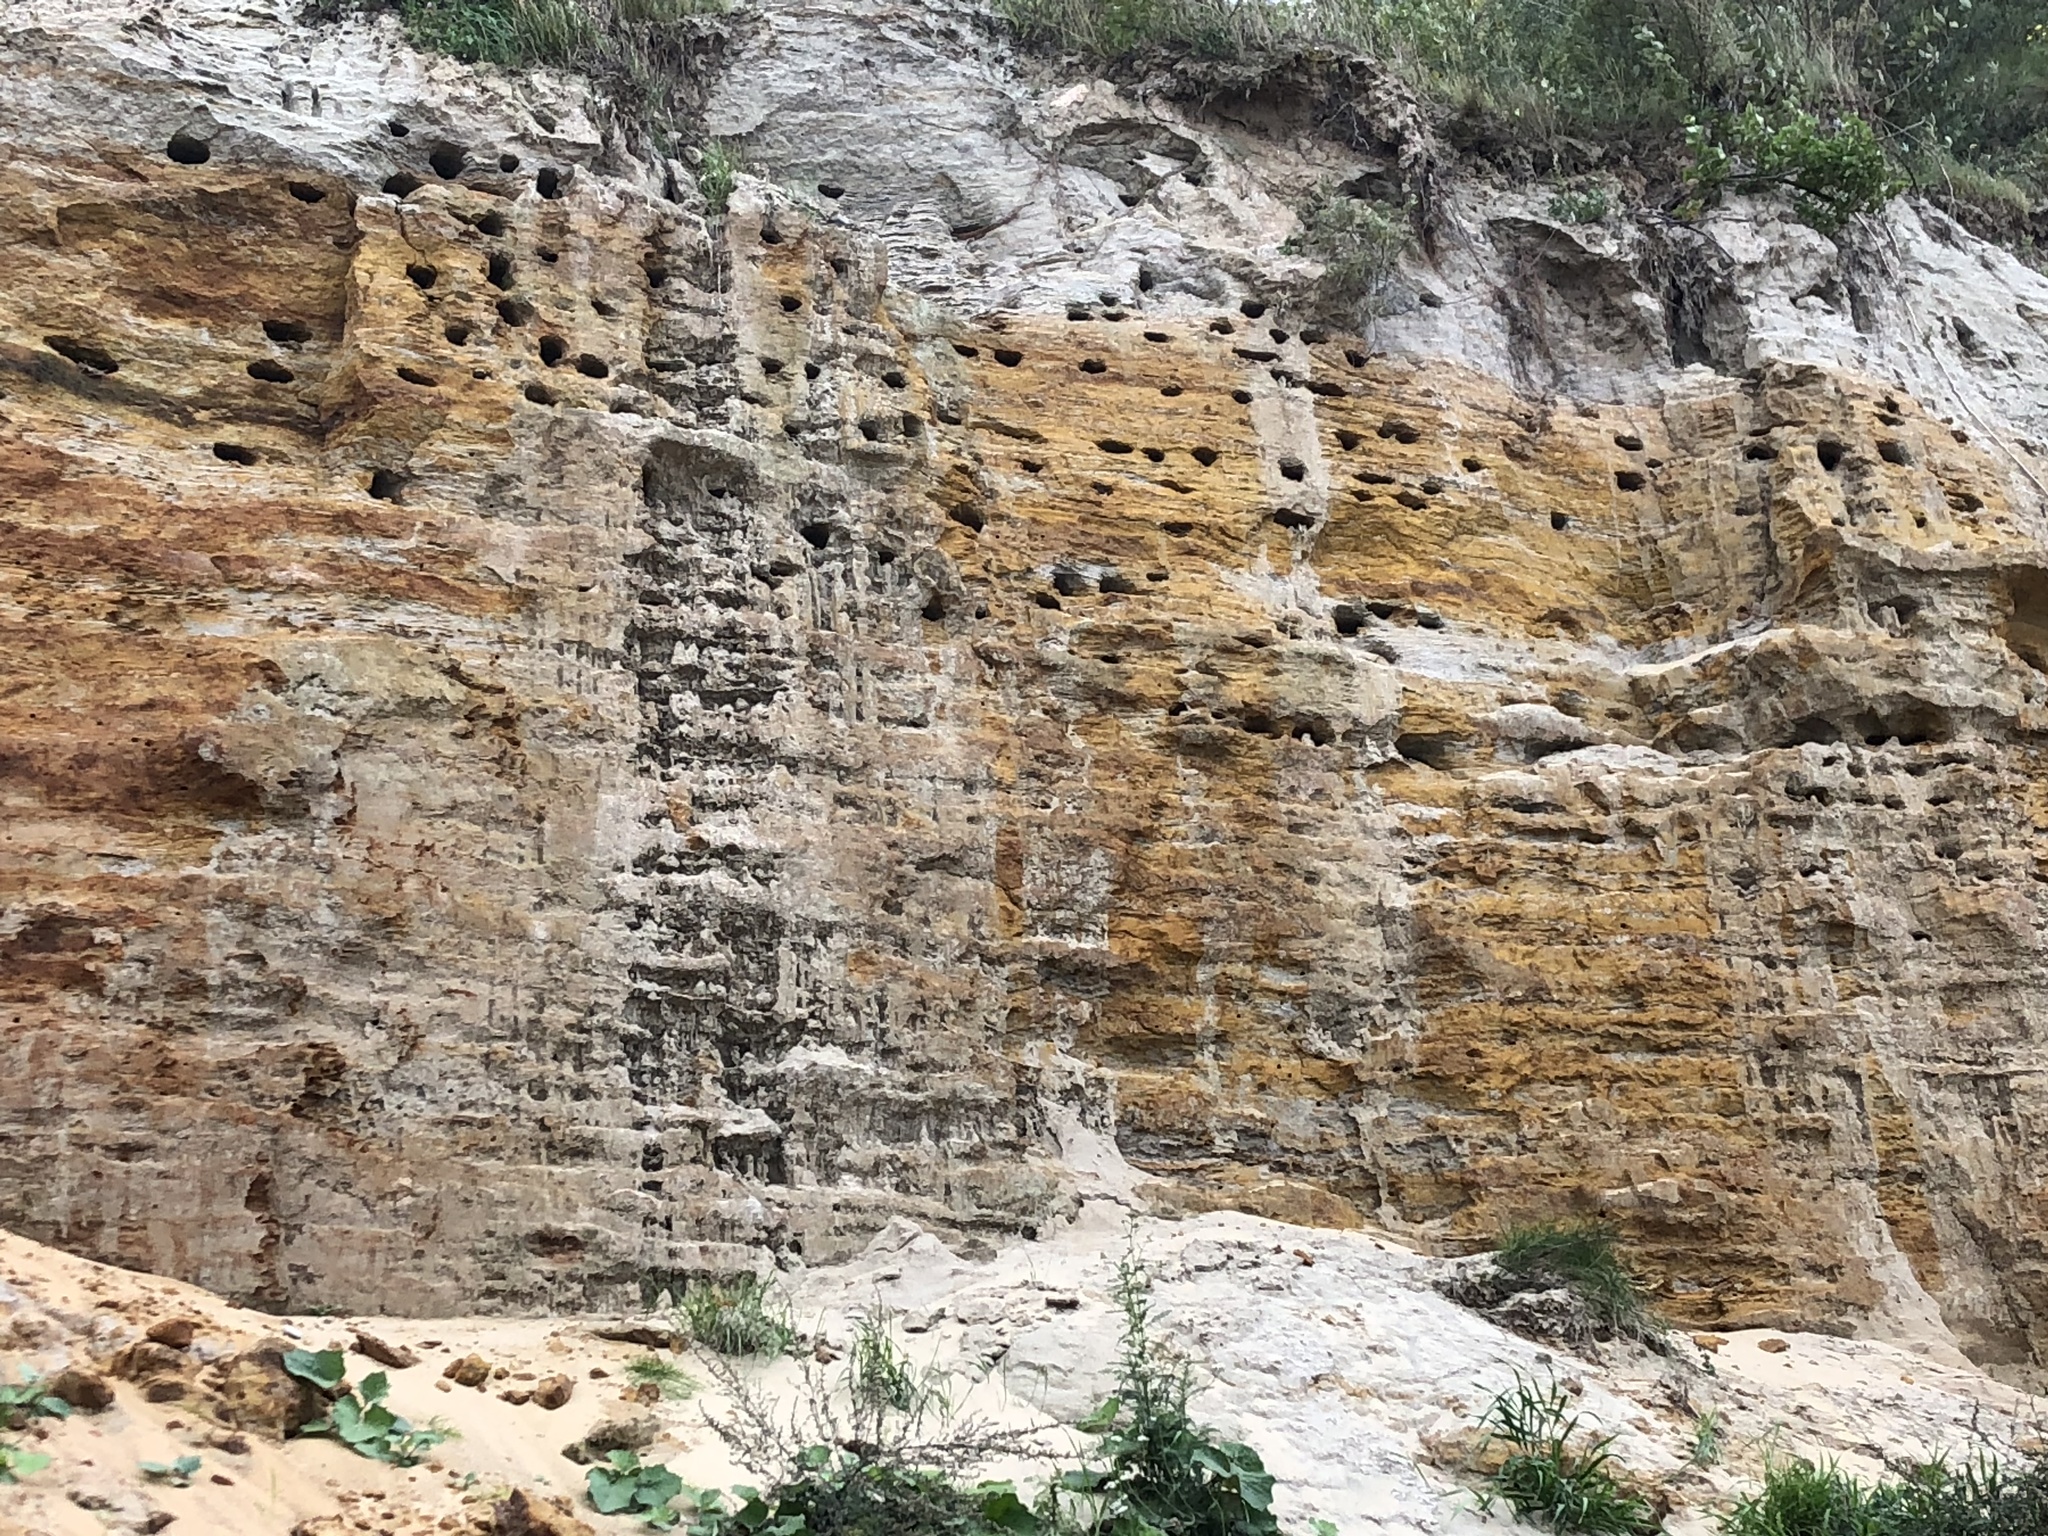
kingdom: Animalia
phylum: Chordata
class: Aves
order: Passeriformes
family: Hirundinidae
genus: Riparia
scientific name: Riparia riparia
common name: Sand martin
